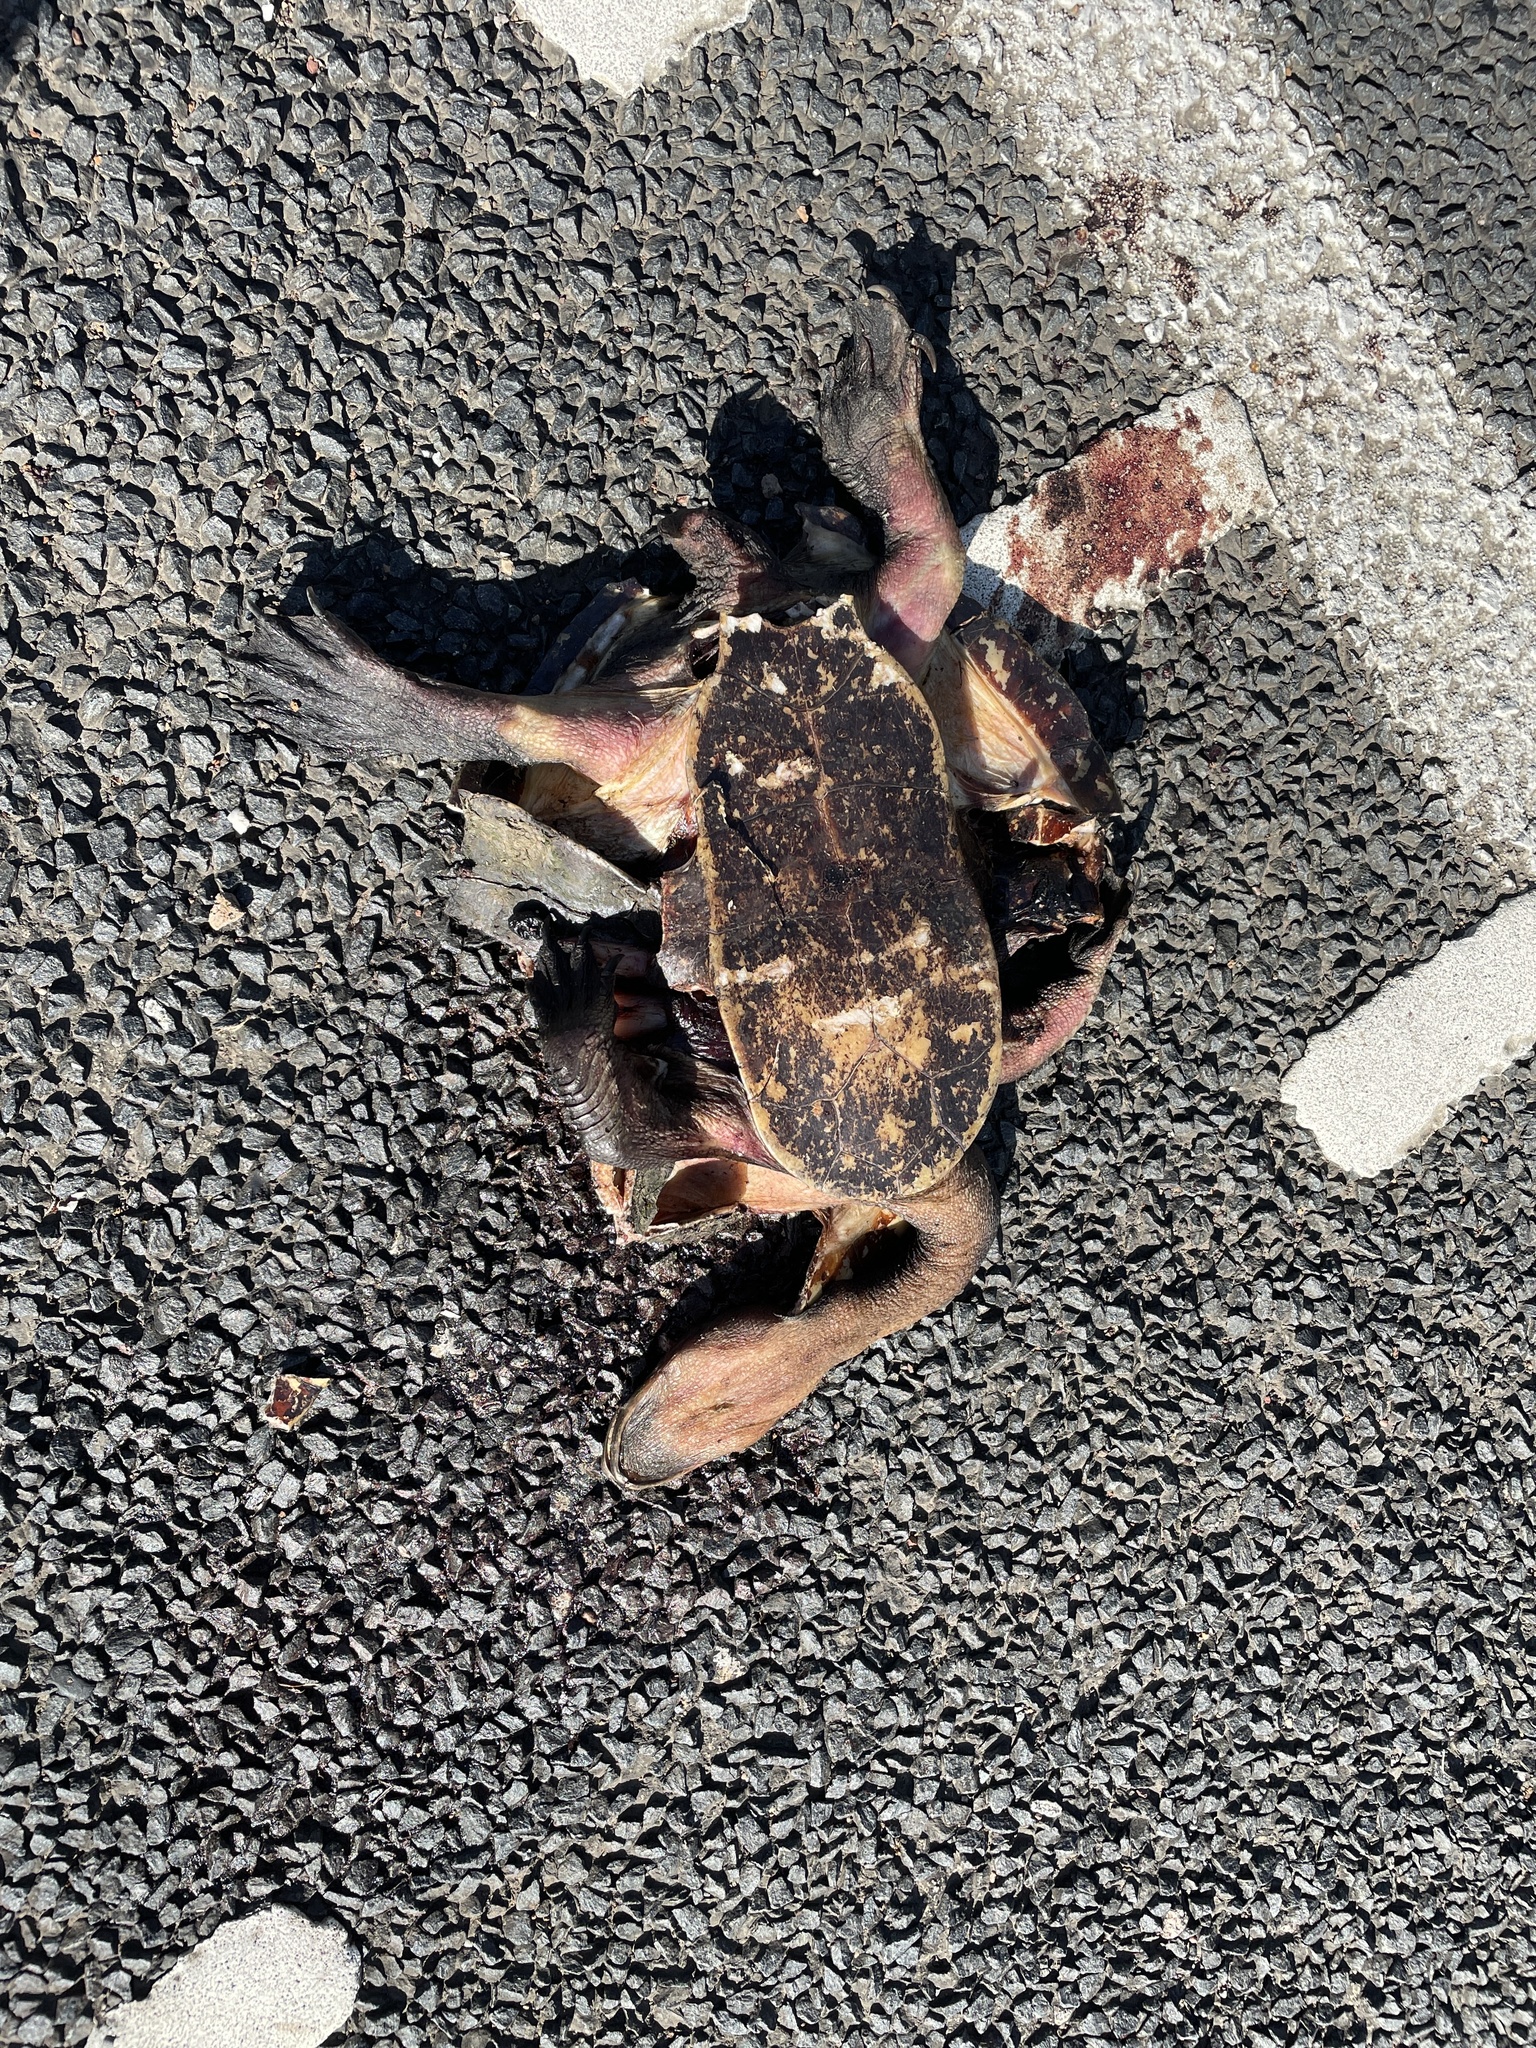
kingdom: Animalia
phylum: Chordata
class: Testudines
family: Chelidae
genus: Chelodina
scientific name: Chelodina expansa
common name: Giant snakeneck turtle
